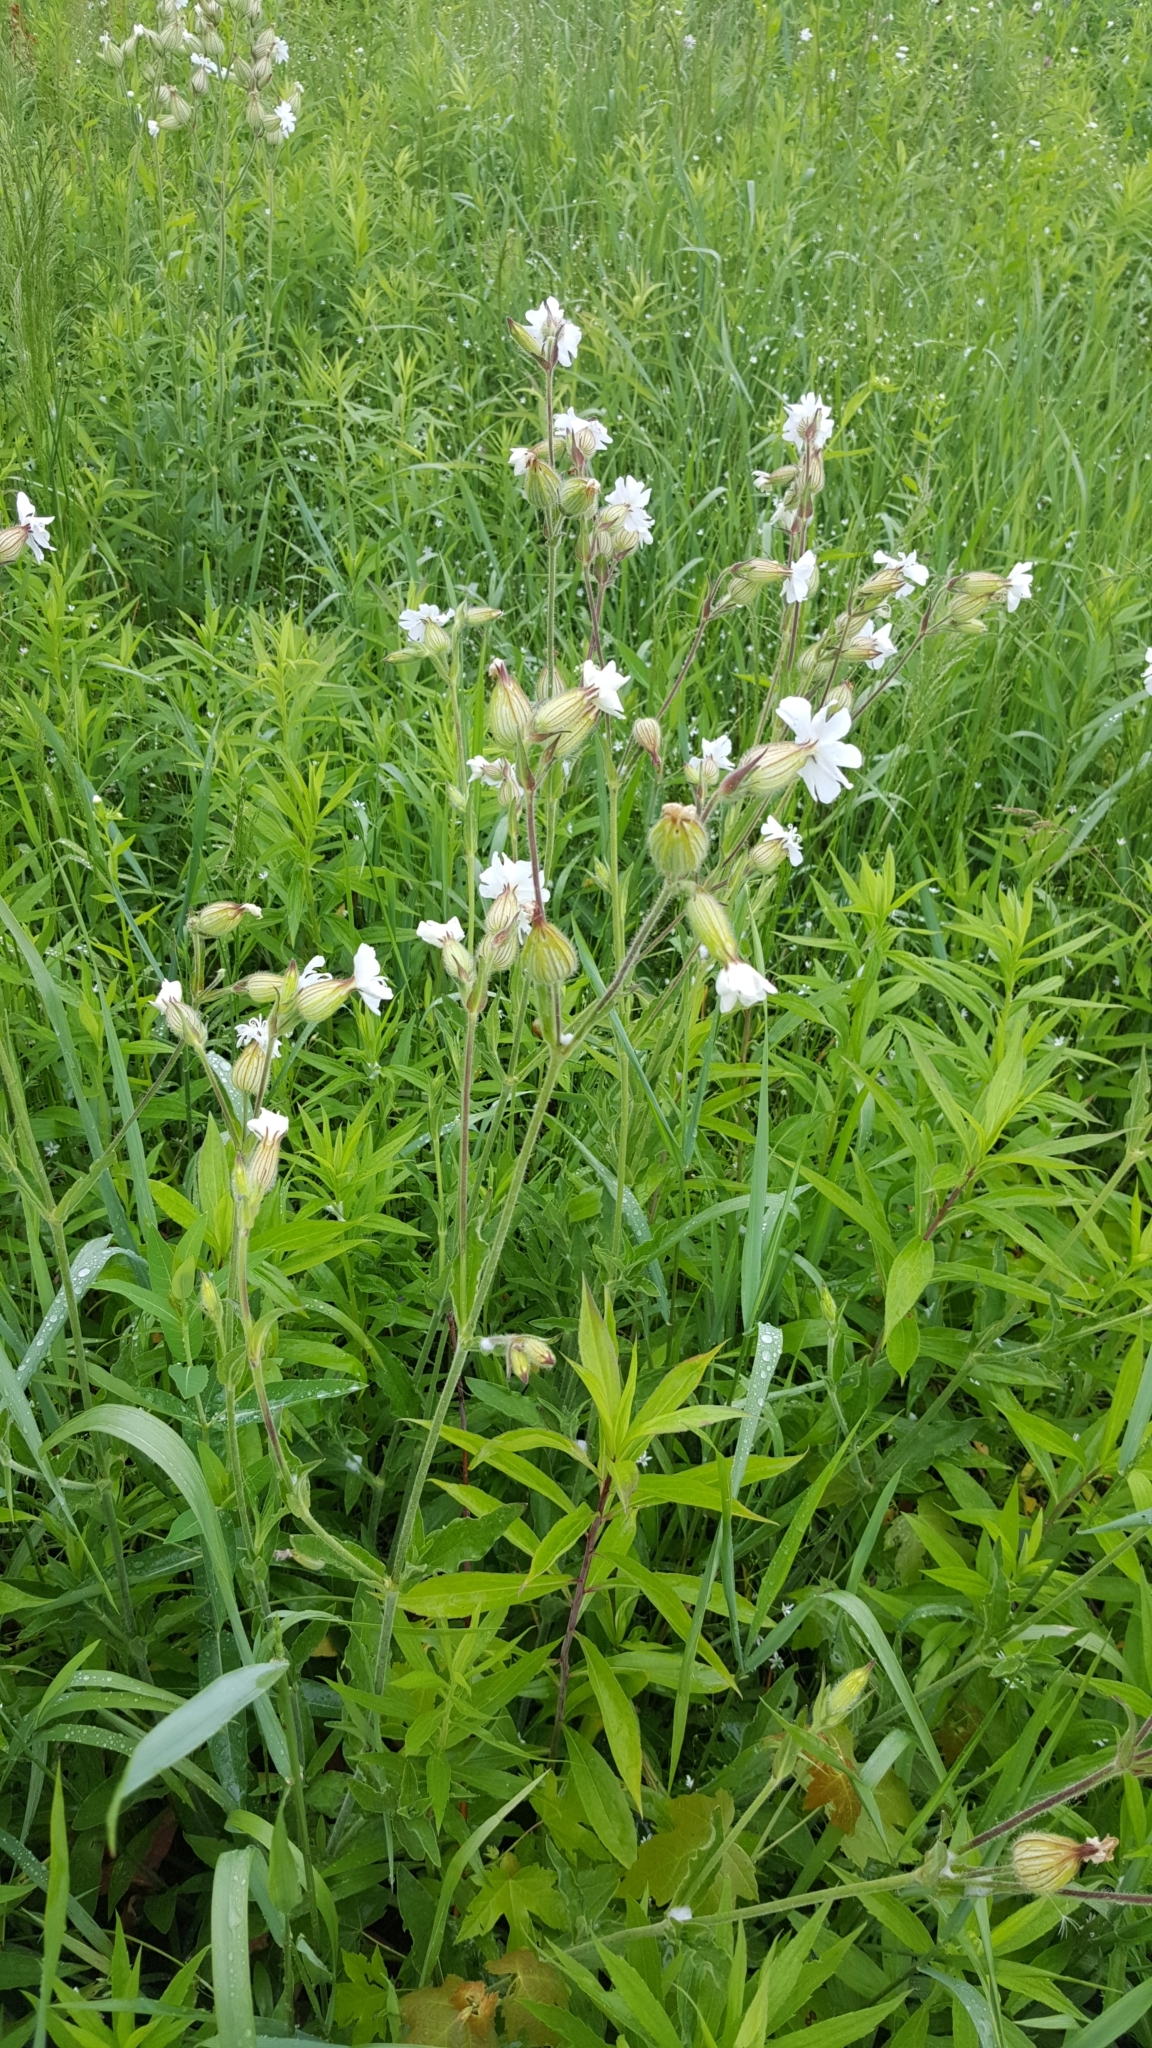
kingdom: Plantae
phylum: Tracheophyta
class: Magnoliopsida
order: Caryophyllales
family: Caryophyllaceae
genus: Silene
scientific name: Silene latifolia
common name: White campion
